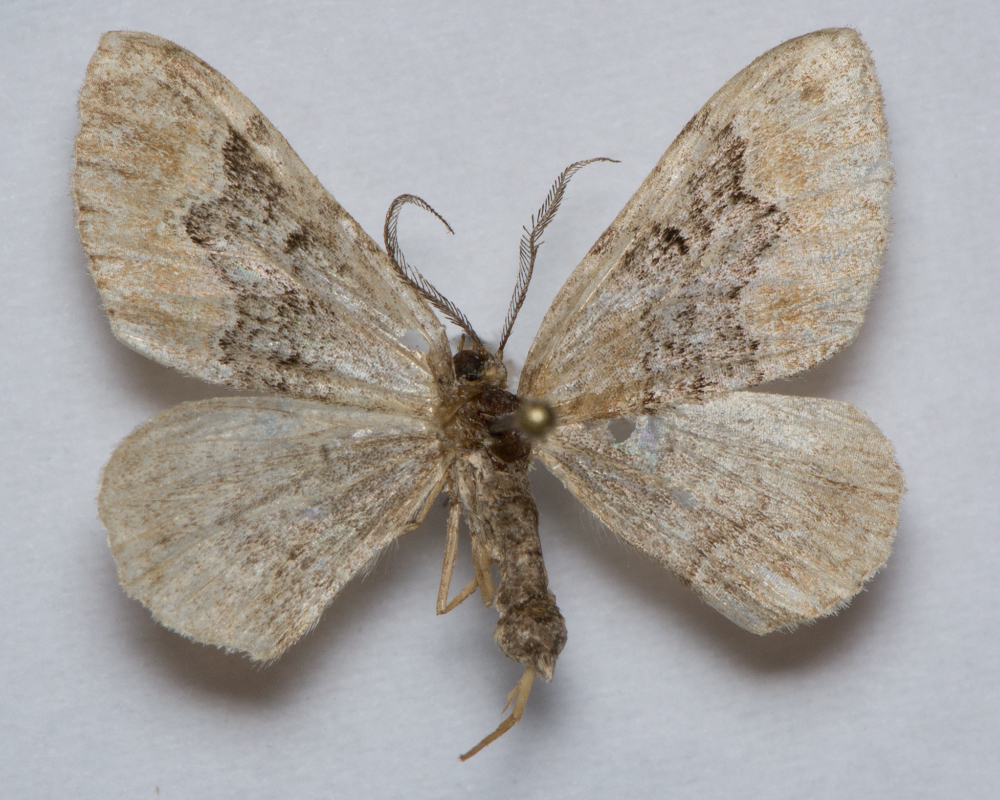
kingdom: Animalia
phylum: Arthropoda
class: Insecta
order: Lepidoptera
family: Geometridae
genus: Xanthorhoe
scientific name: Xanthorhoe quadrifasiata
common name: Large twin-spot carpet
